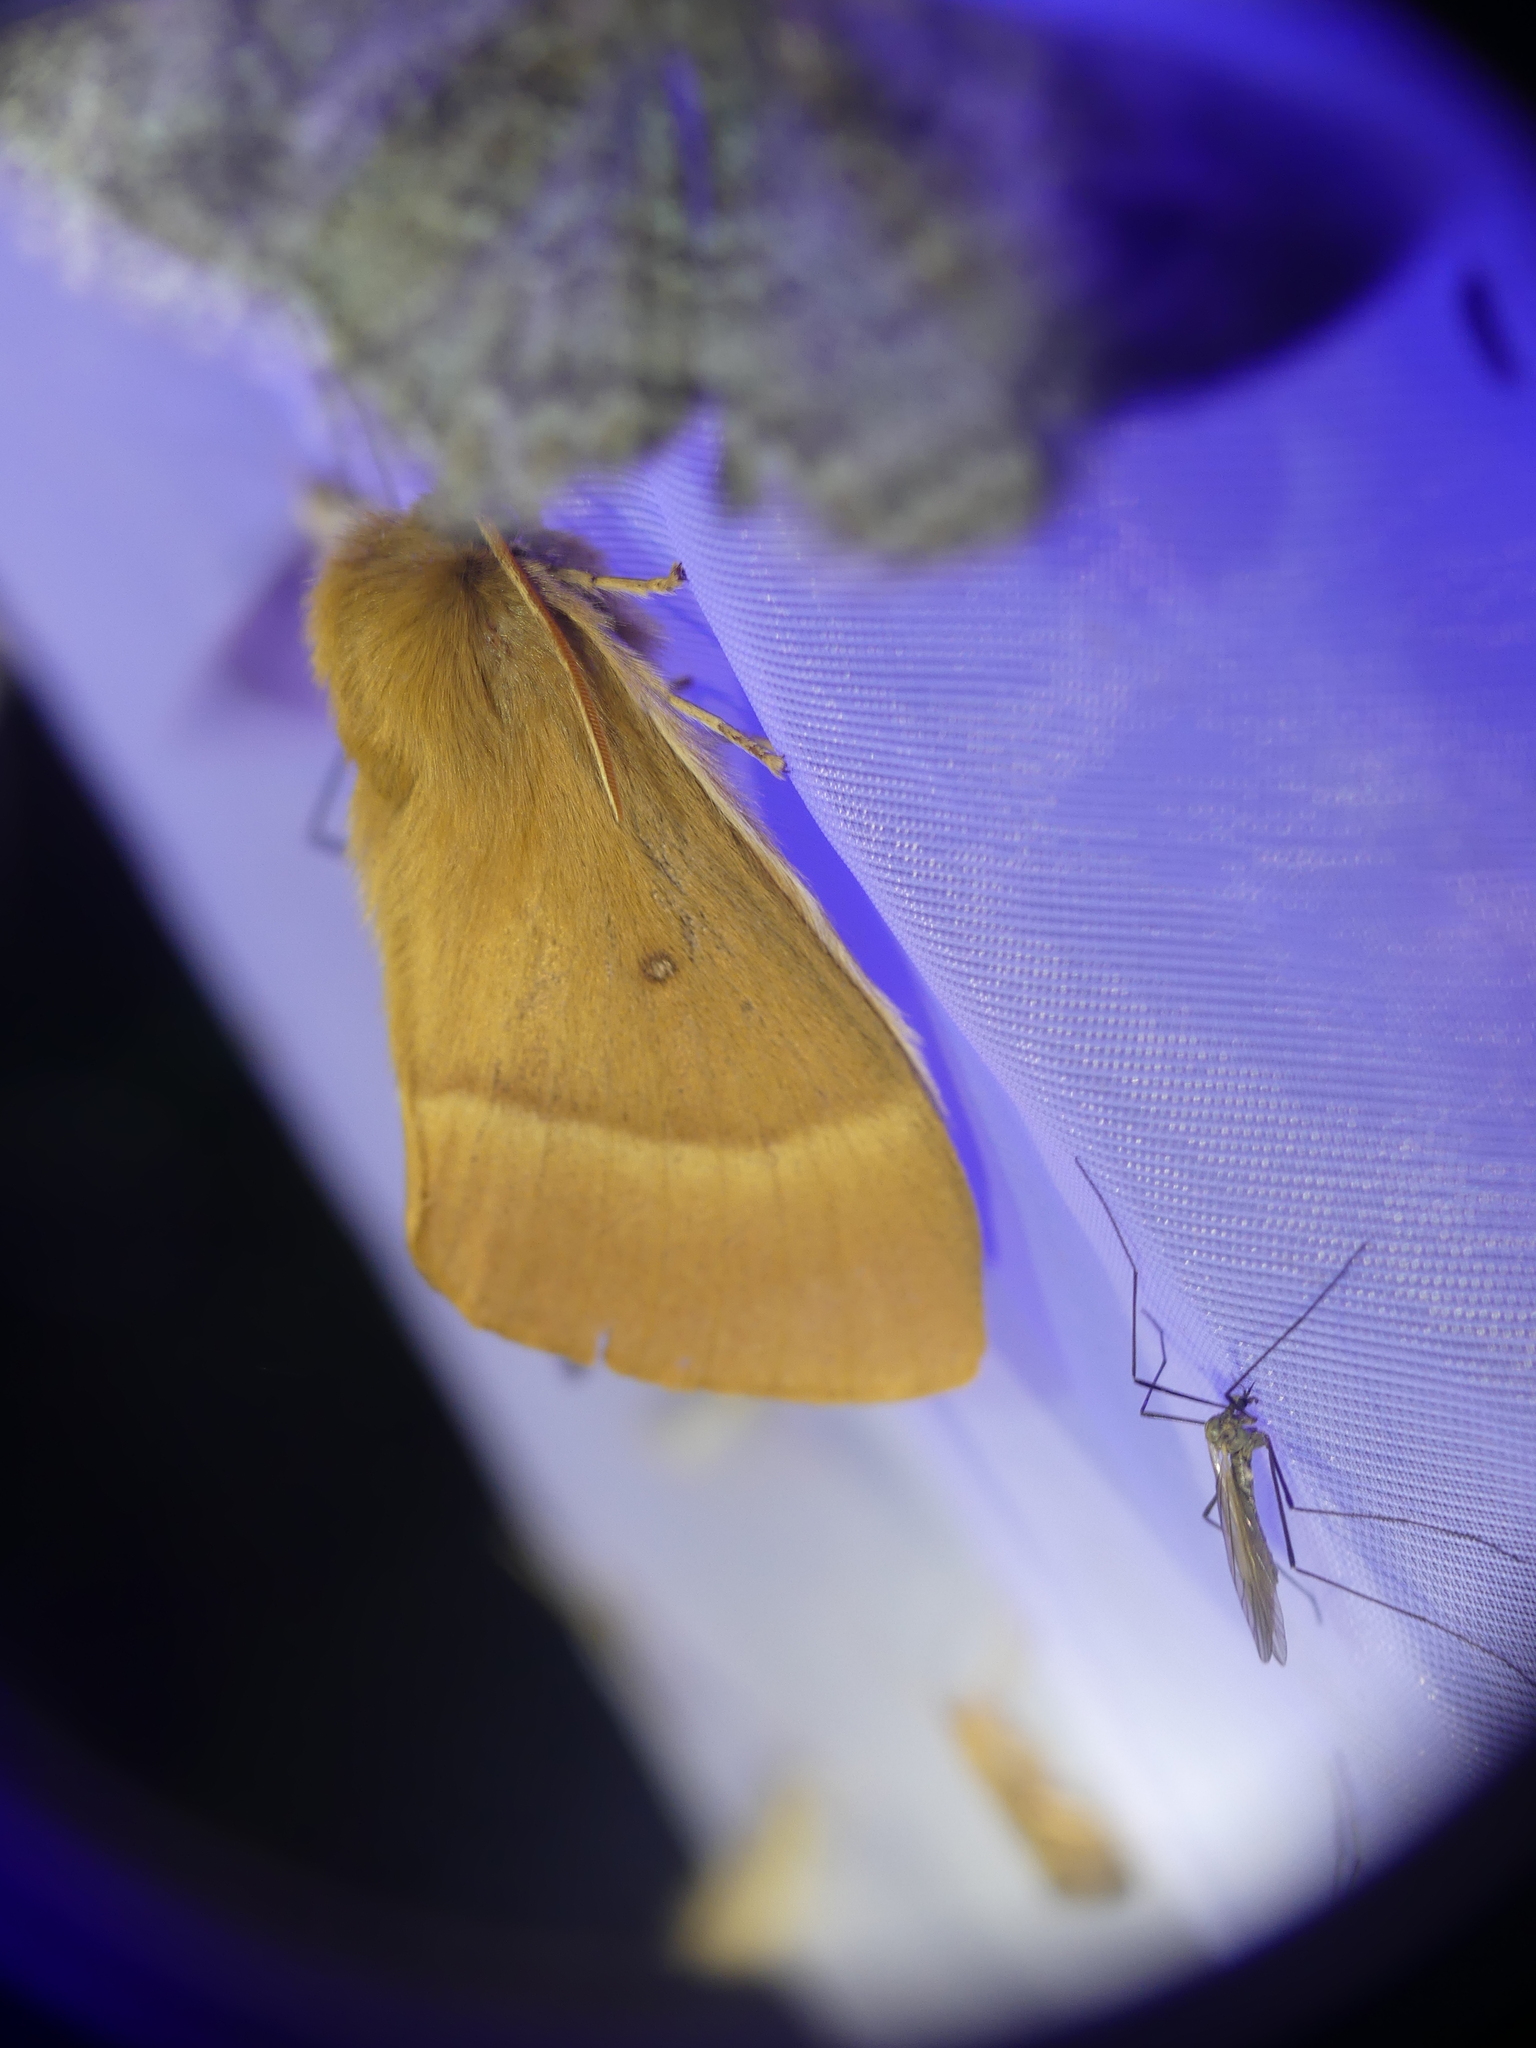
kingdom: Animalia
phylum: Arthropoda
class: Insecta
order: Lepidoptera
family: Lasiocampidae
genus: Lasiocampa
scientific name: Lasiocampa quercus
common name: Oak eggar
